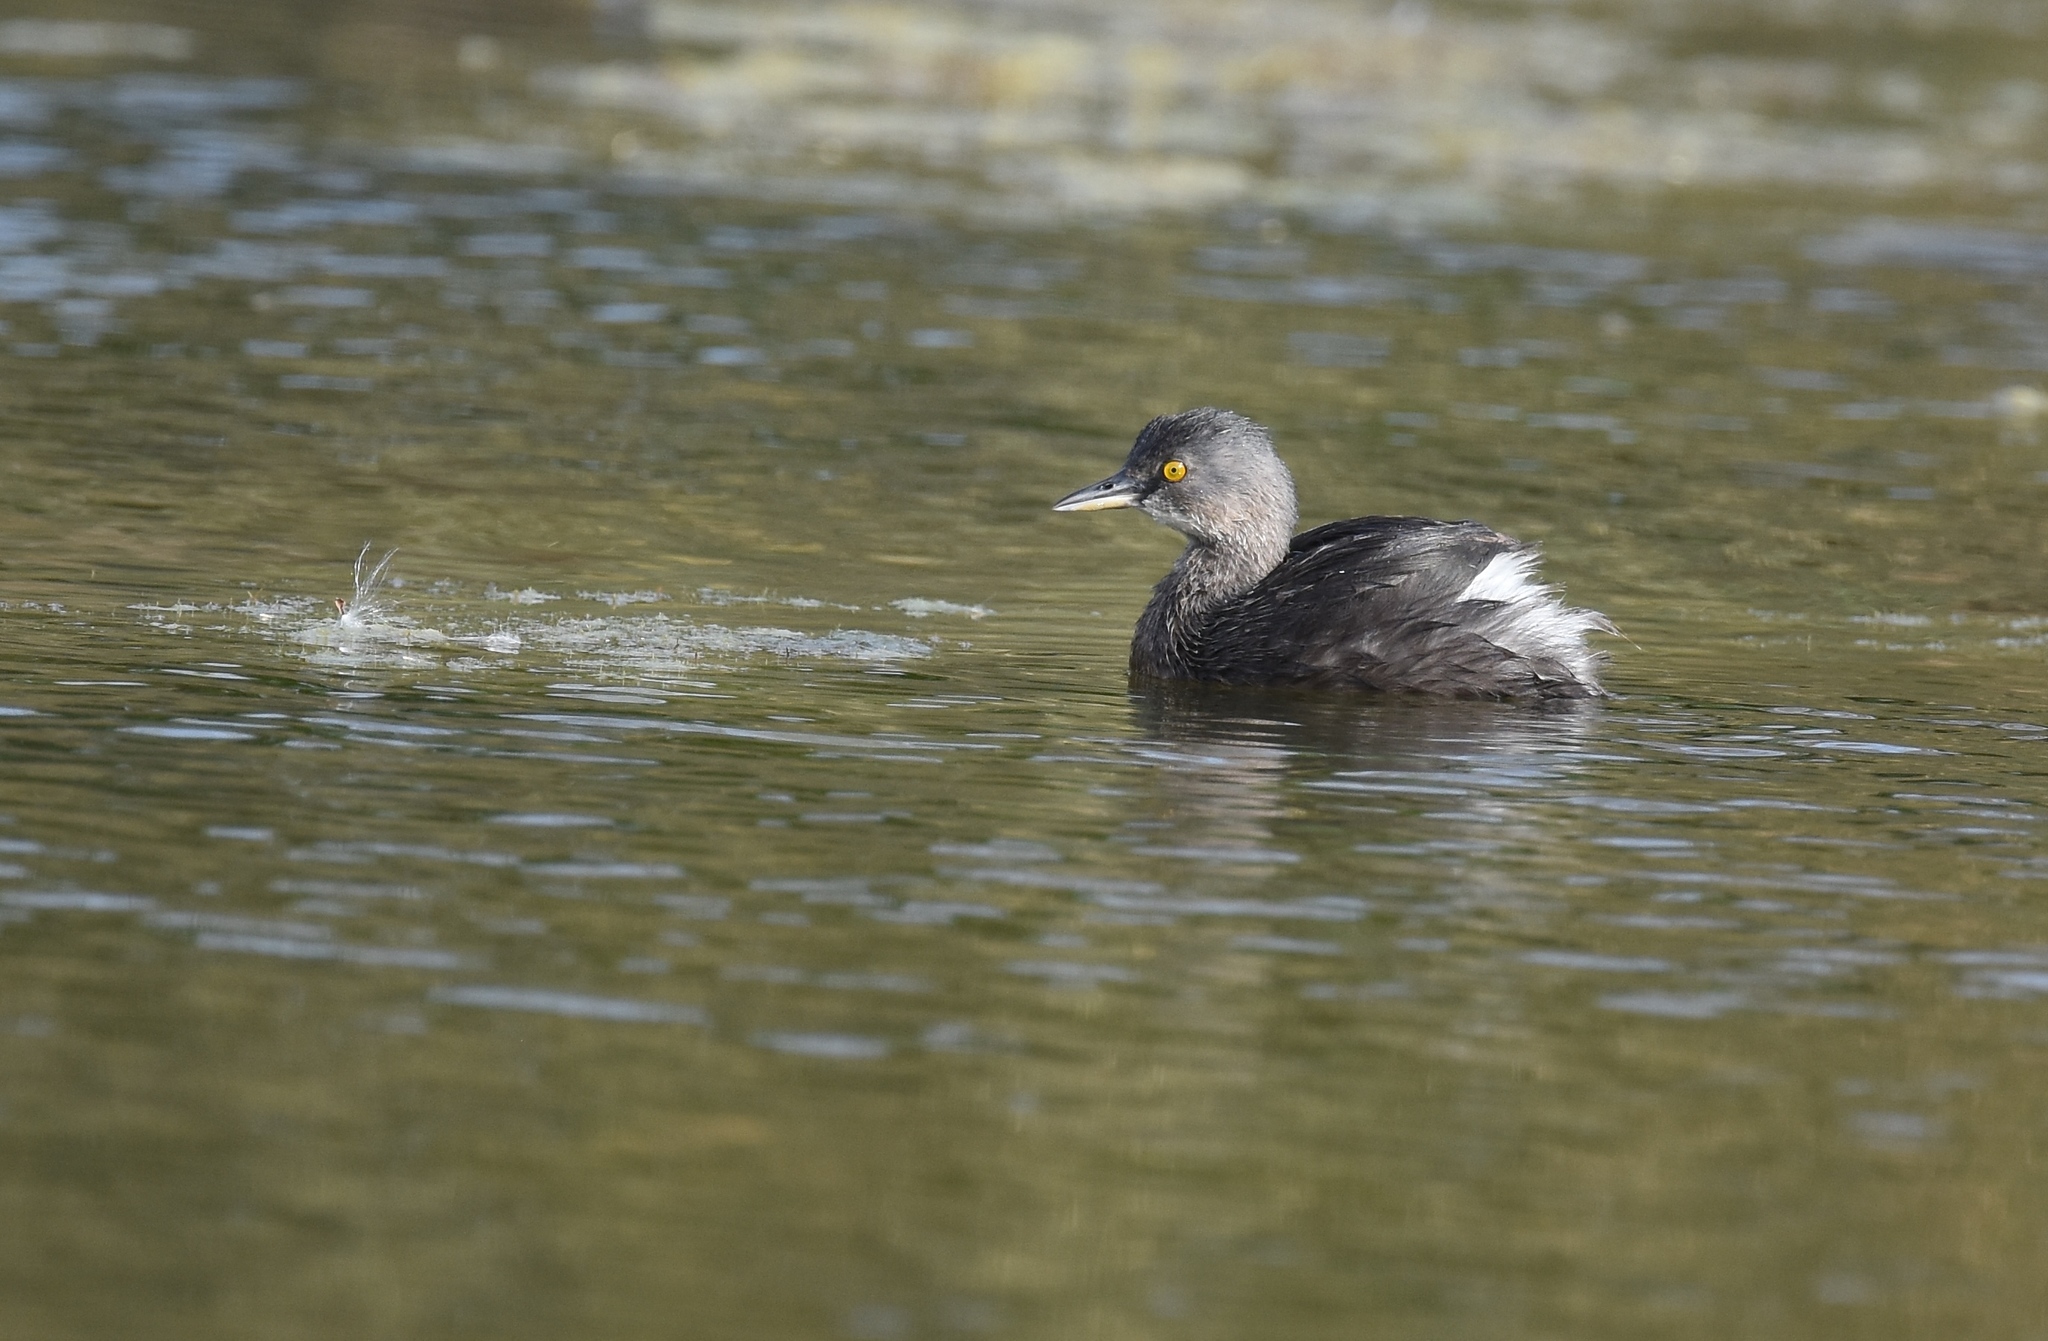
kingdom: Animalia
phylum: Chordata
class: Aves
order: Podicipediformes
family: Podicipedidae
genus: Tachybaptus
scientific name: Tachybaptus dominicus
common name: Least grebe
